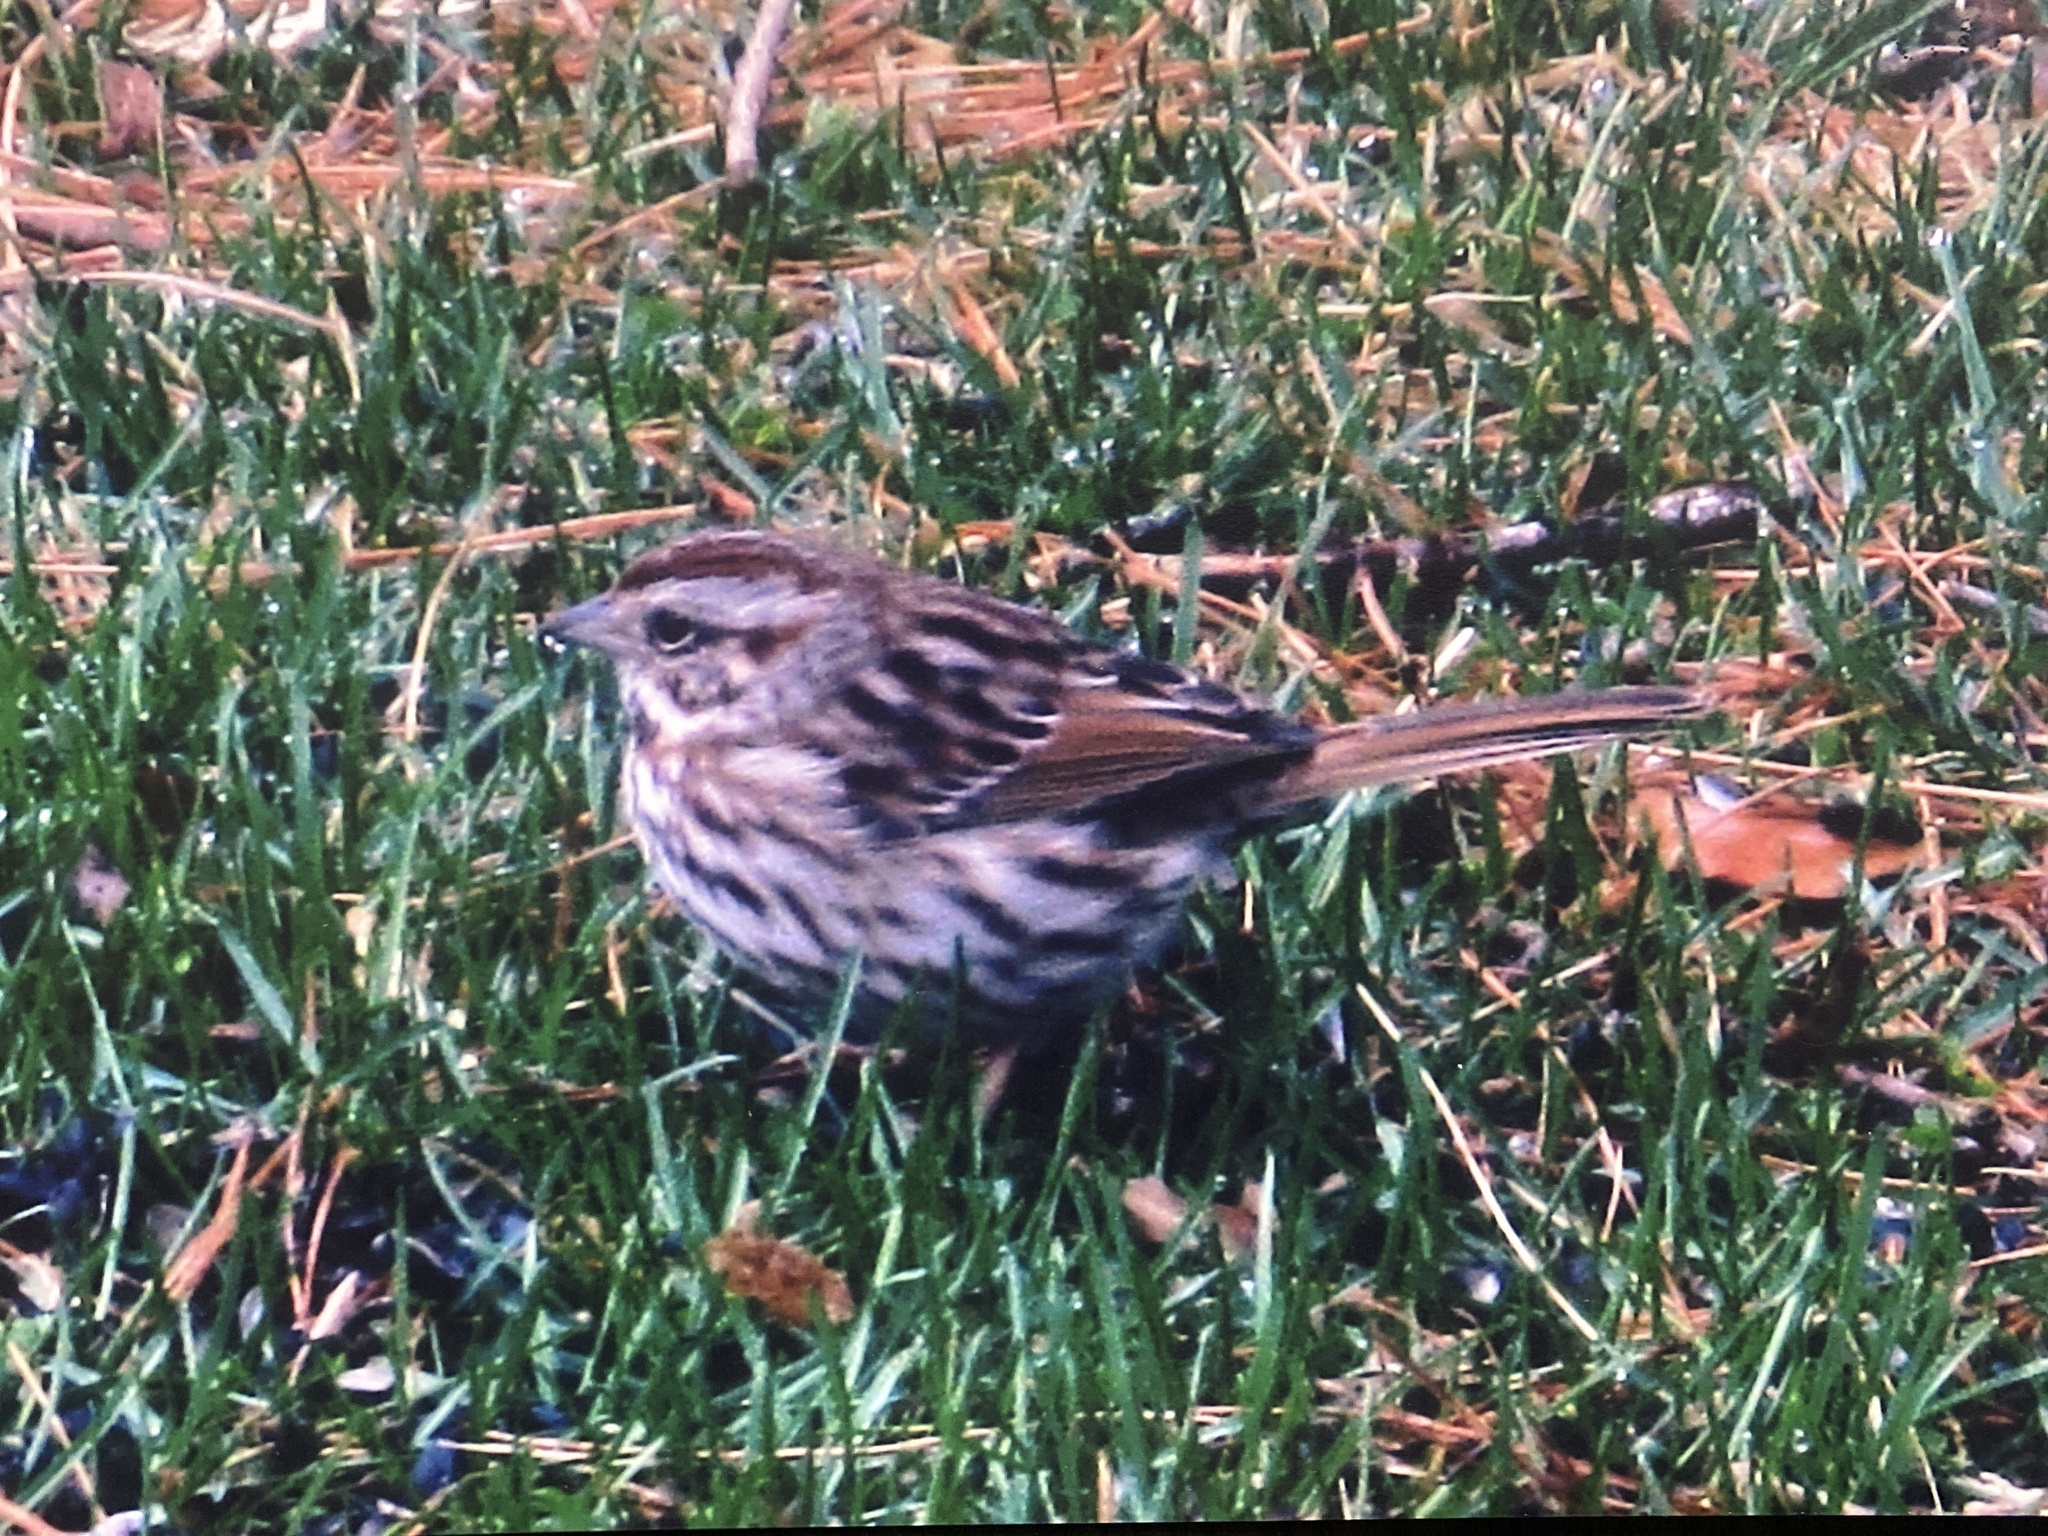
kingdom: Animalia
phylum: Chordata
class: Aves
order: Passeriformes
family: Passerellidae
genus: Melospiza
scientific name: Melospiza melodia
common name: Song sparrow
